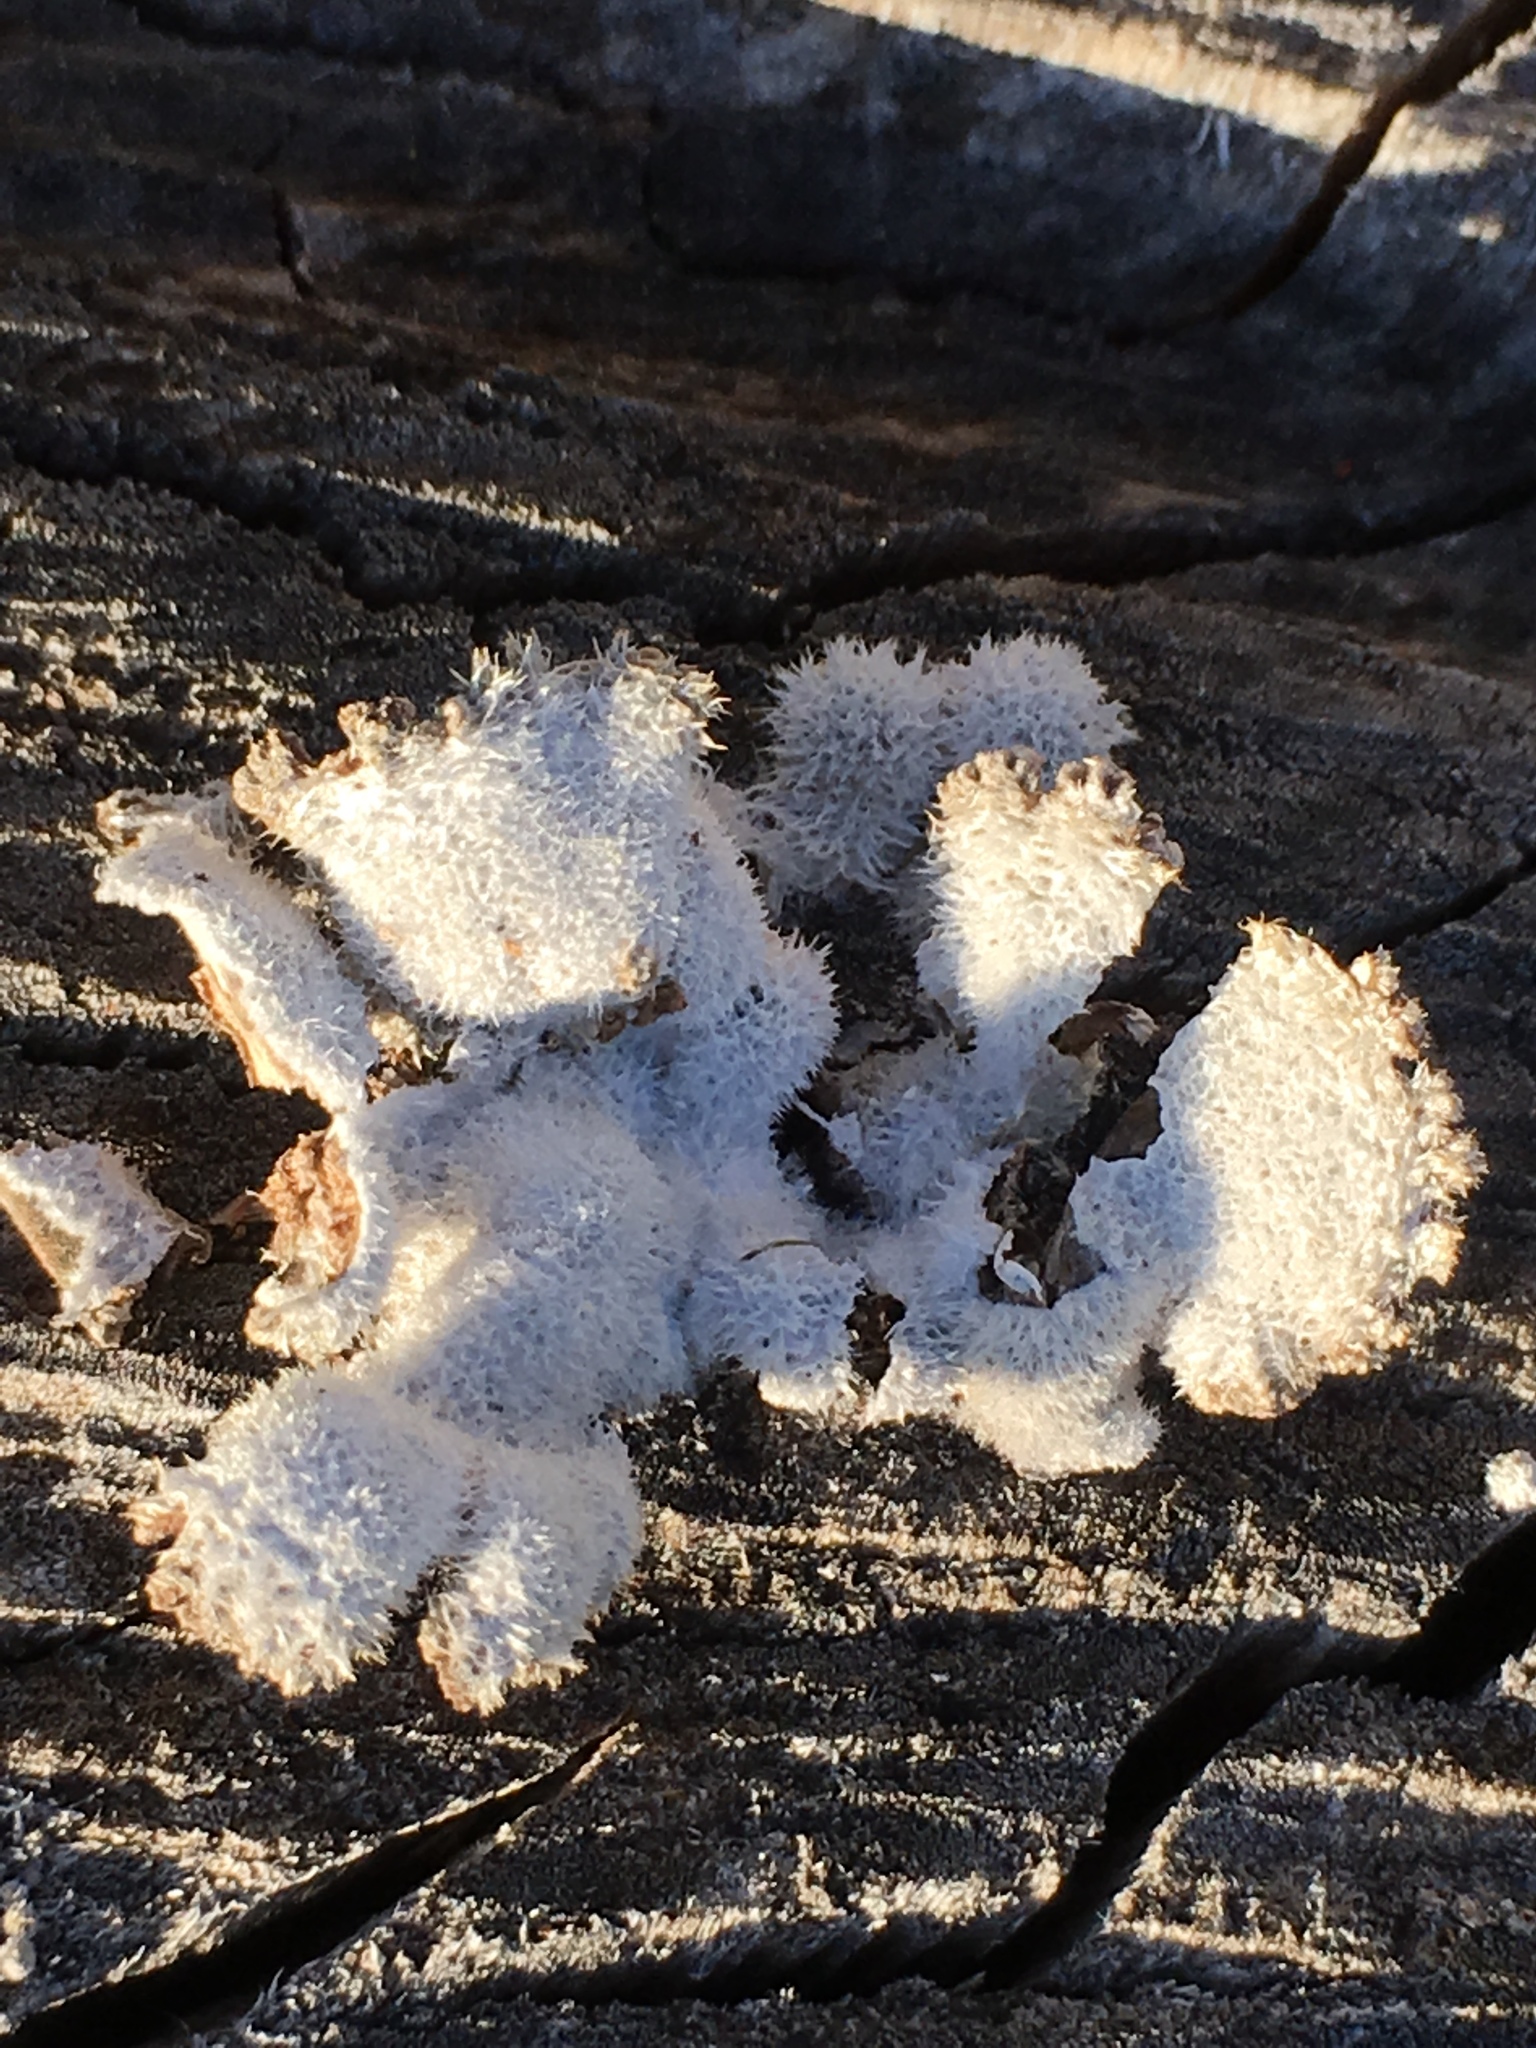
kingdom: Fungi
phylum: Basidiomycota
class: Agaricomycetes
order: Agaricales
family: Schizophyllaceae
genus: Schizophyllum
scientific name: Schizophyllum commune
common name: Common porecrust
